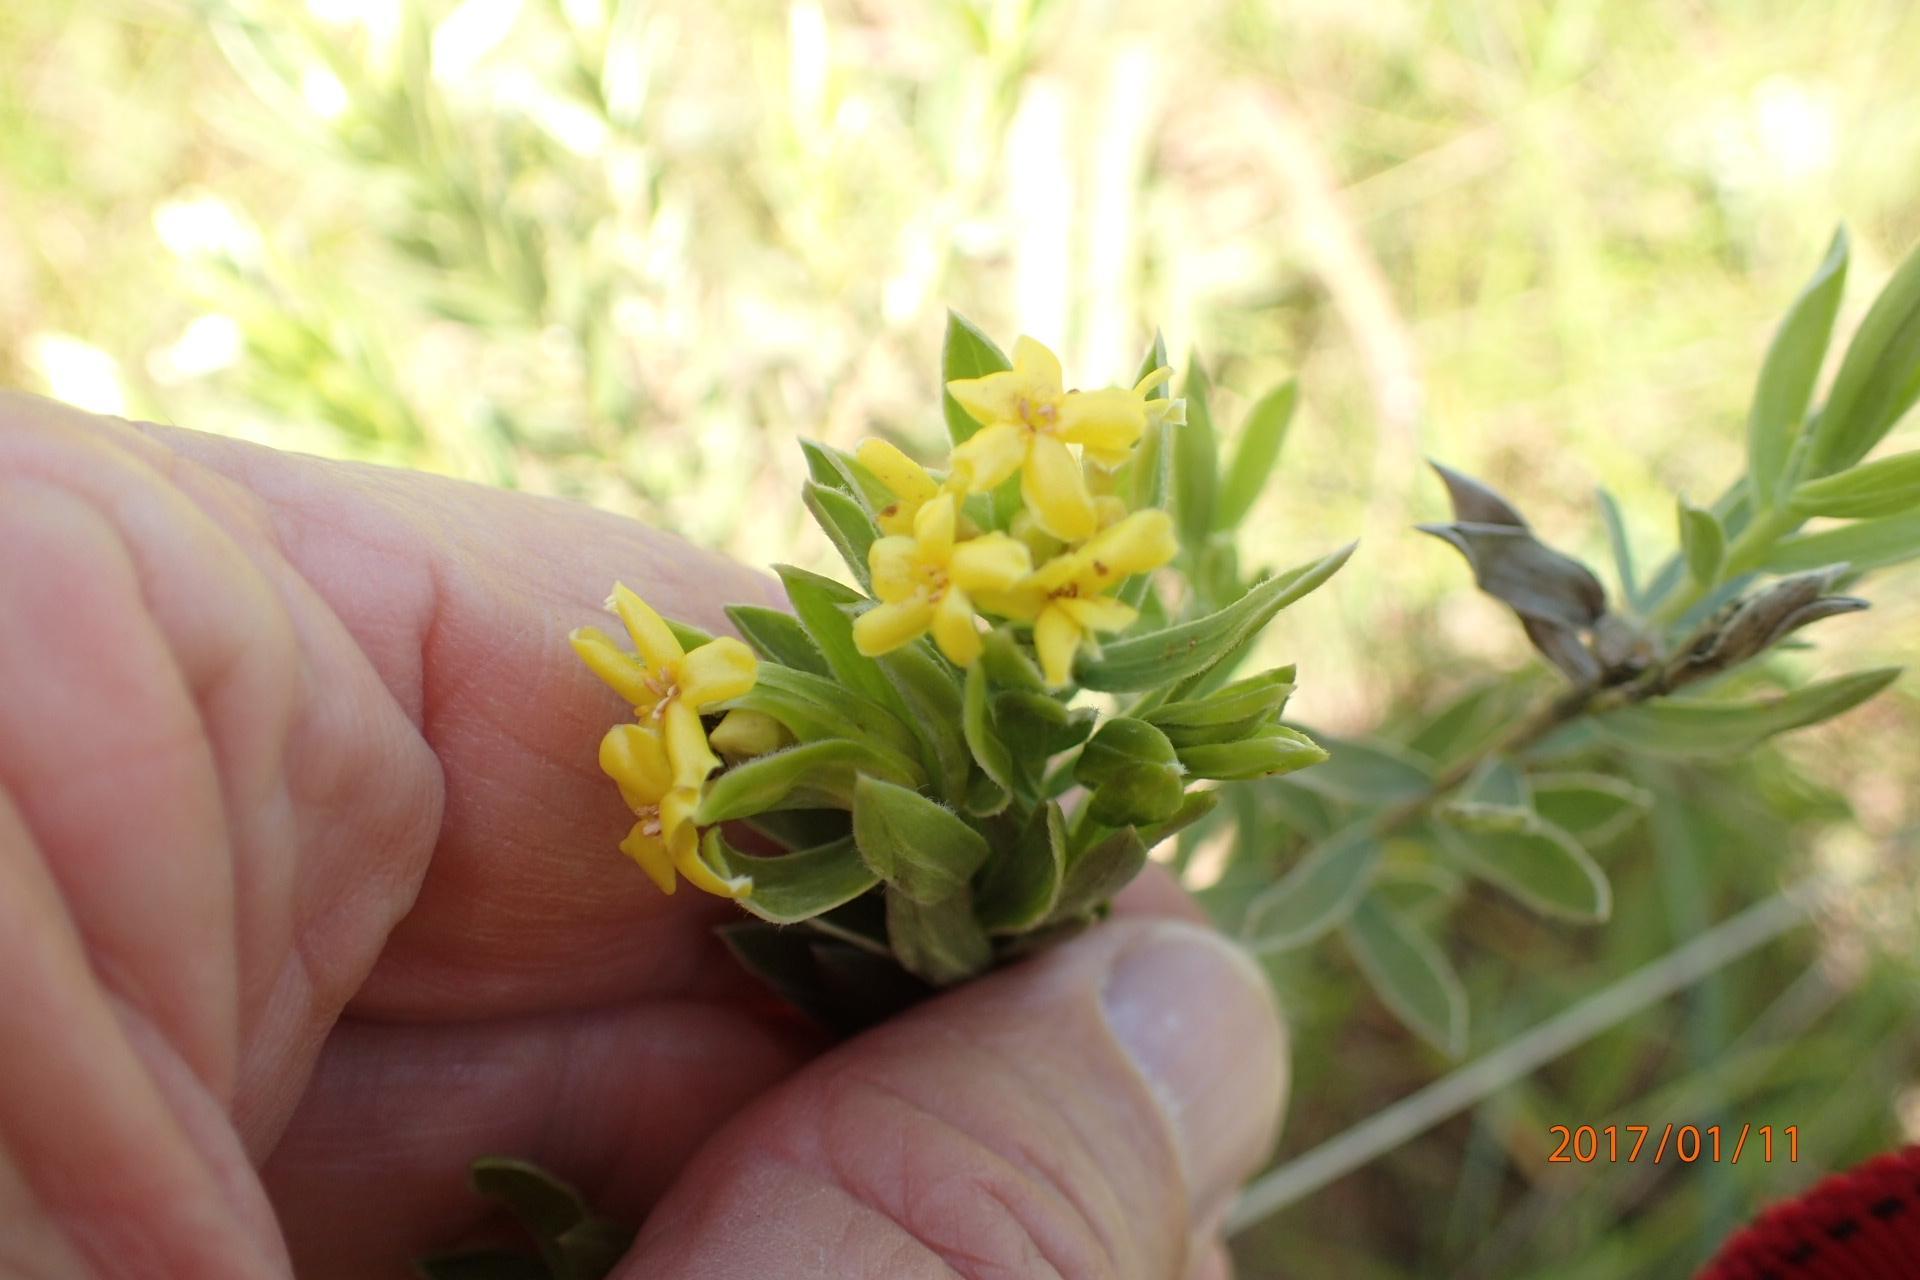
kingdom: Plantae
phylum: Tracheophyta
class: Magnoliopsida
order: Malvales
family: Thymelaeaceae
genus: Gnidia
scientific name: Gnidia splendens
